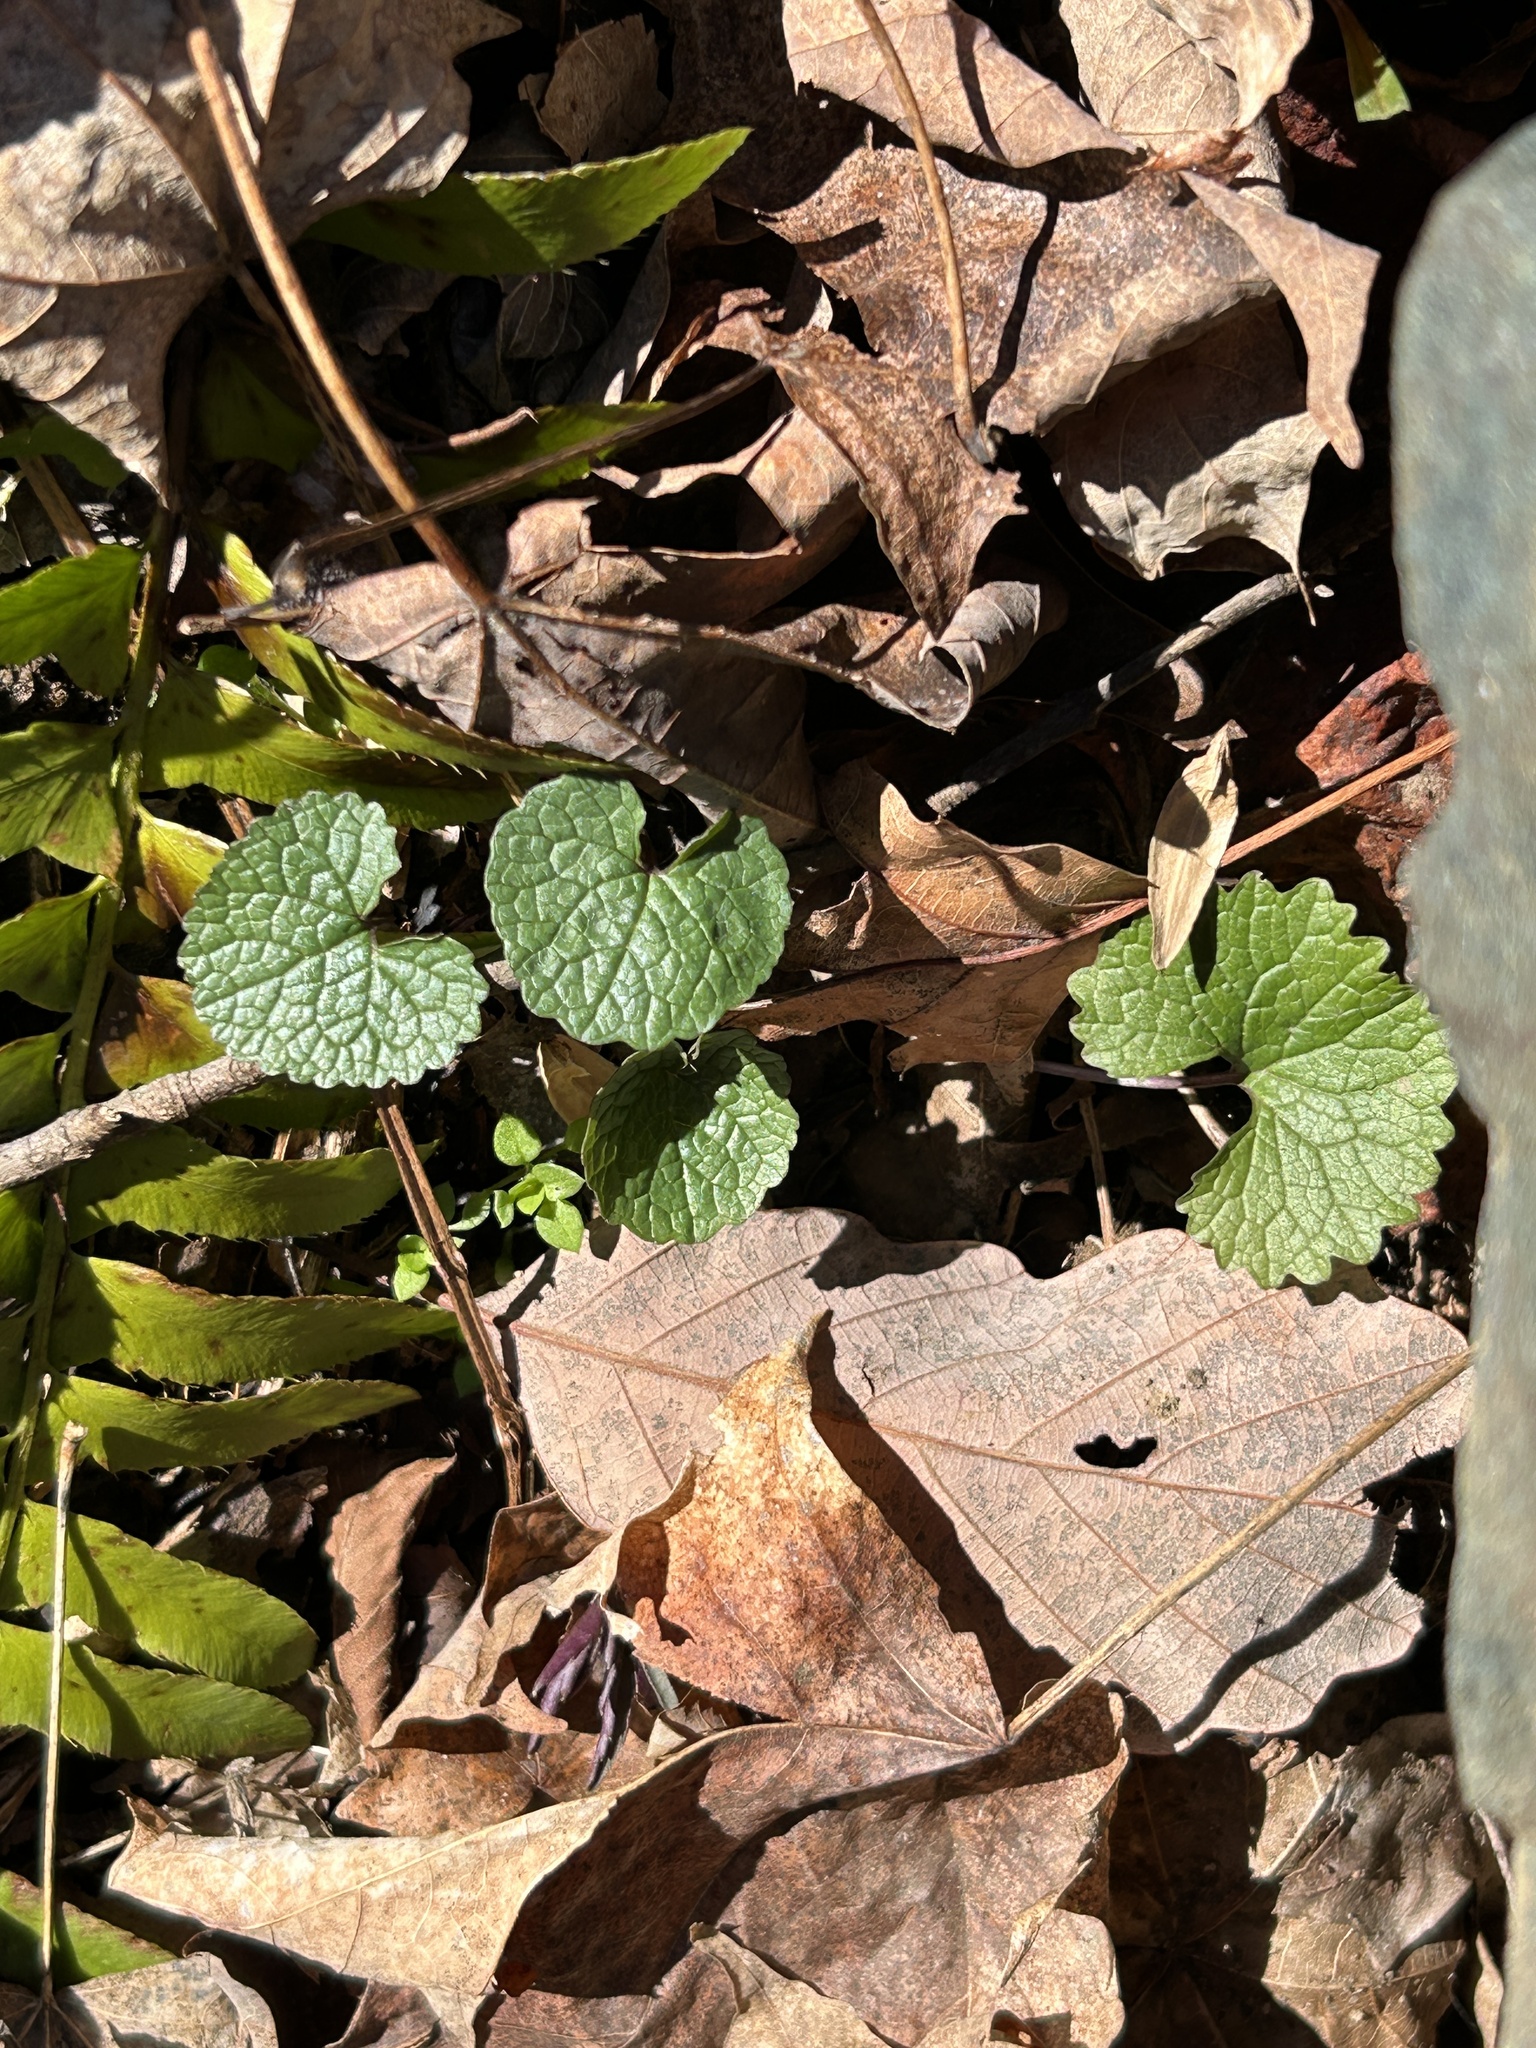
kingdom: Plantae
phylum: Tracheophyta
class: Magnoliopsida
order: Brassicales
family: Brassicaceae
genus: Alliaria
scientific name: Alliaria petiolata
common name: Garlic mustard
